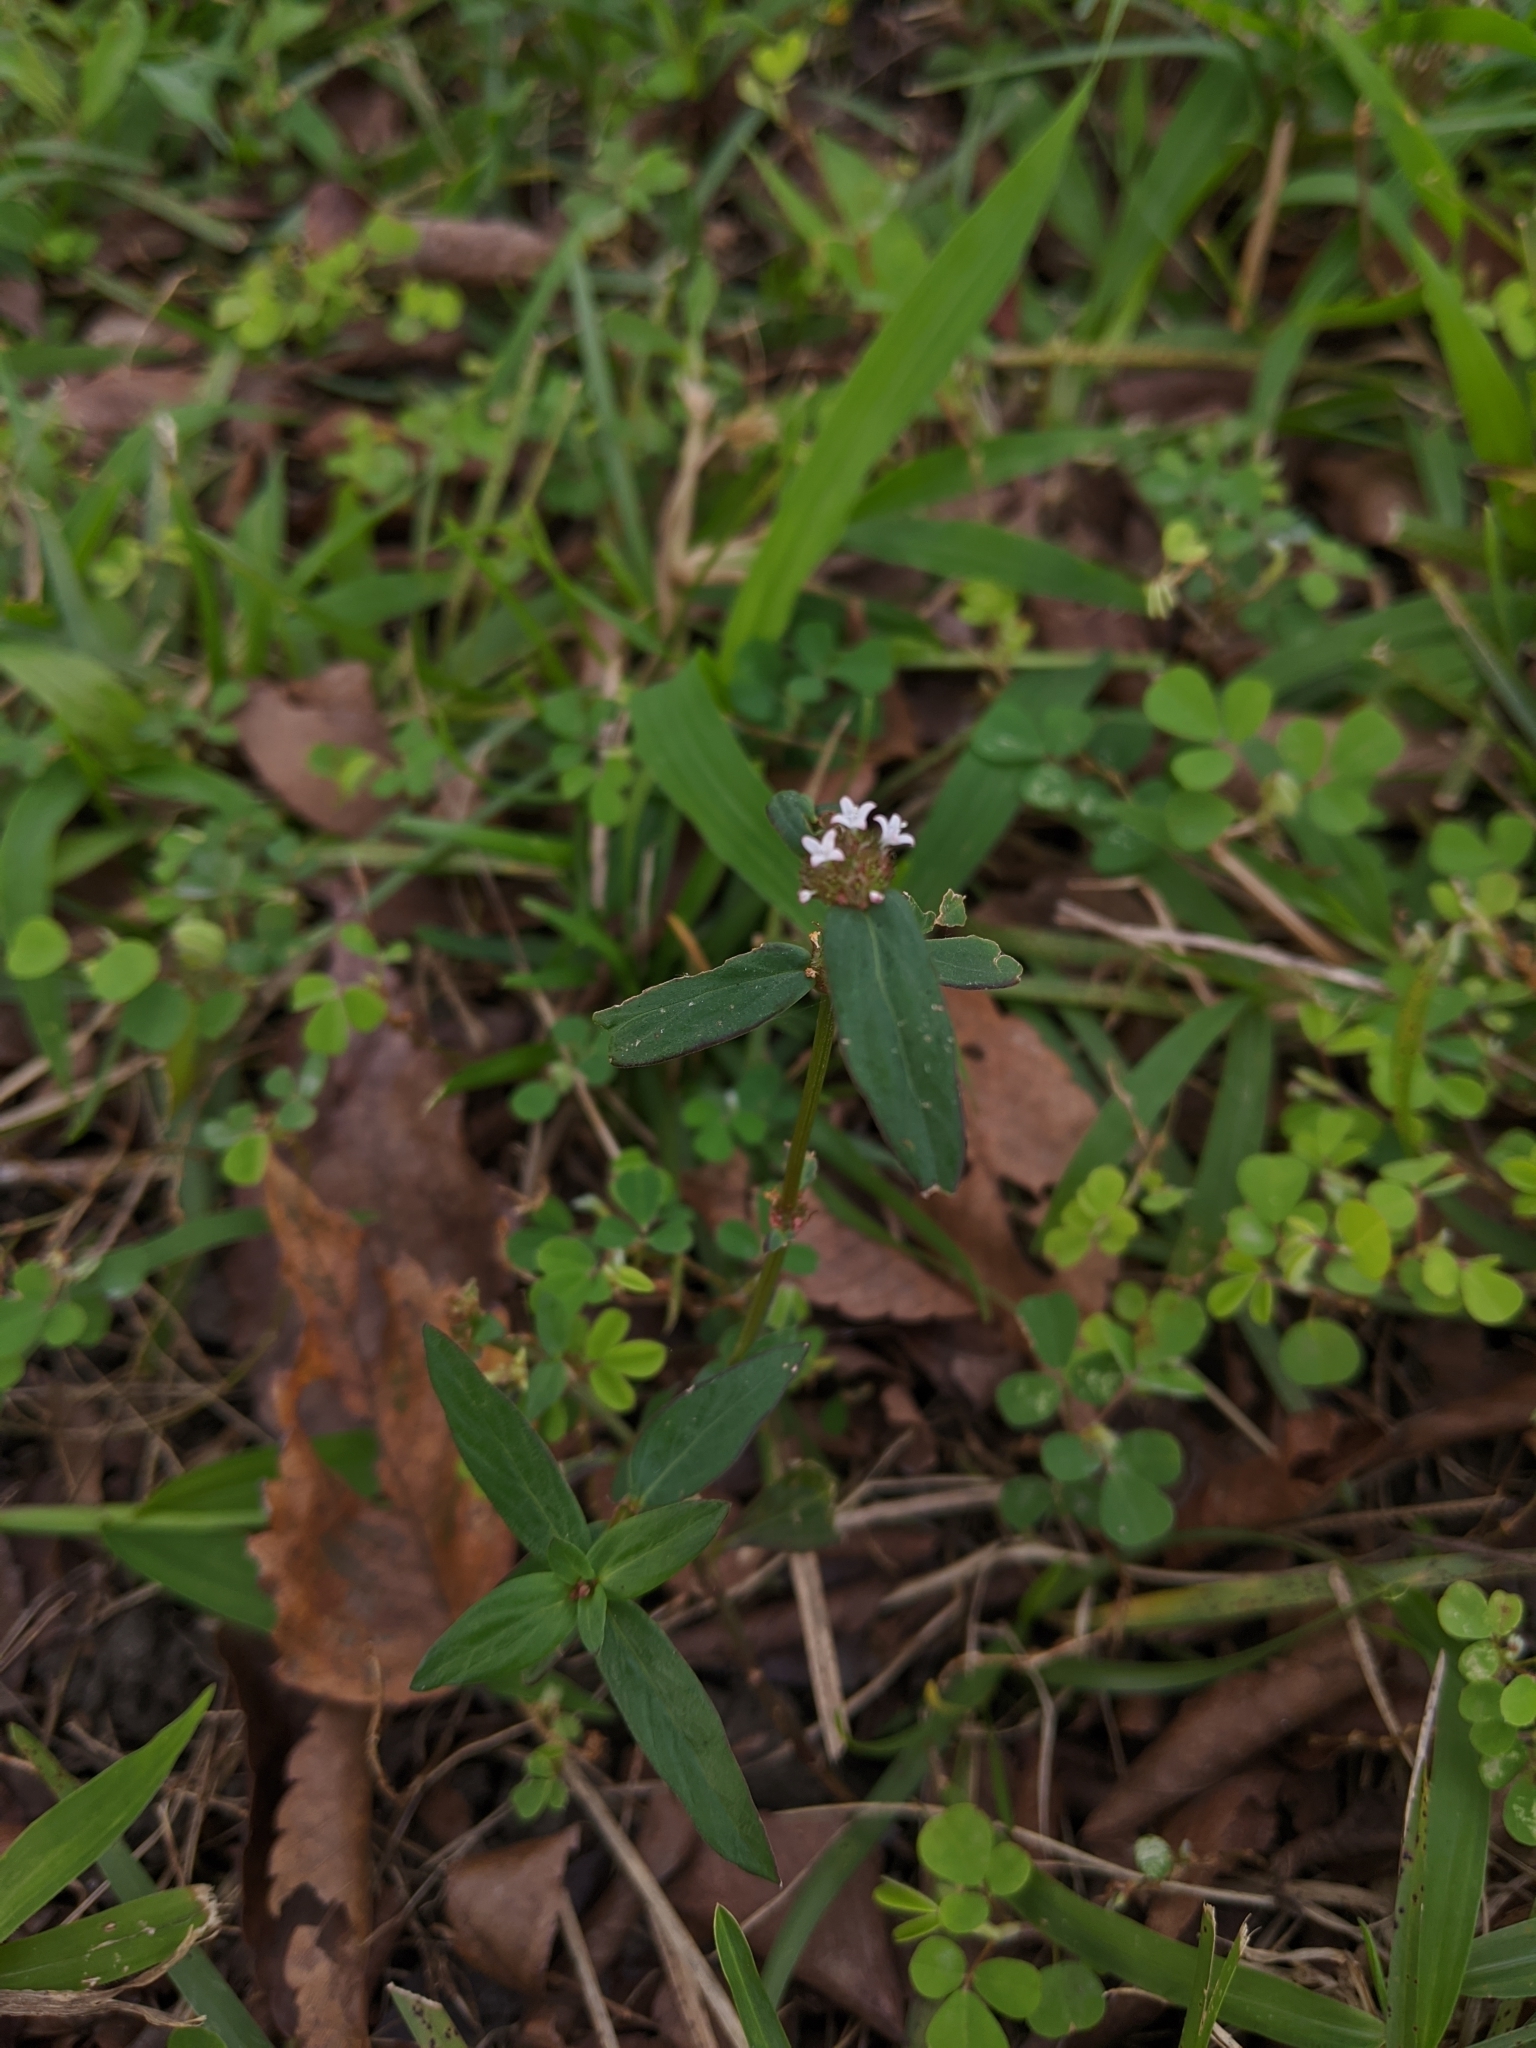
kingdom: Plantae
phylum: Tracheophyta
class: Magnoliopsida
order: Gentianales
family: Rubiaceae
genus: Spermacoce
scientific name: Spermacoce remota
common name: Woodland false buttonweed
